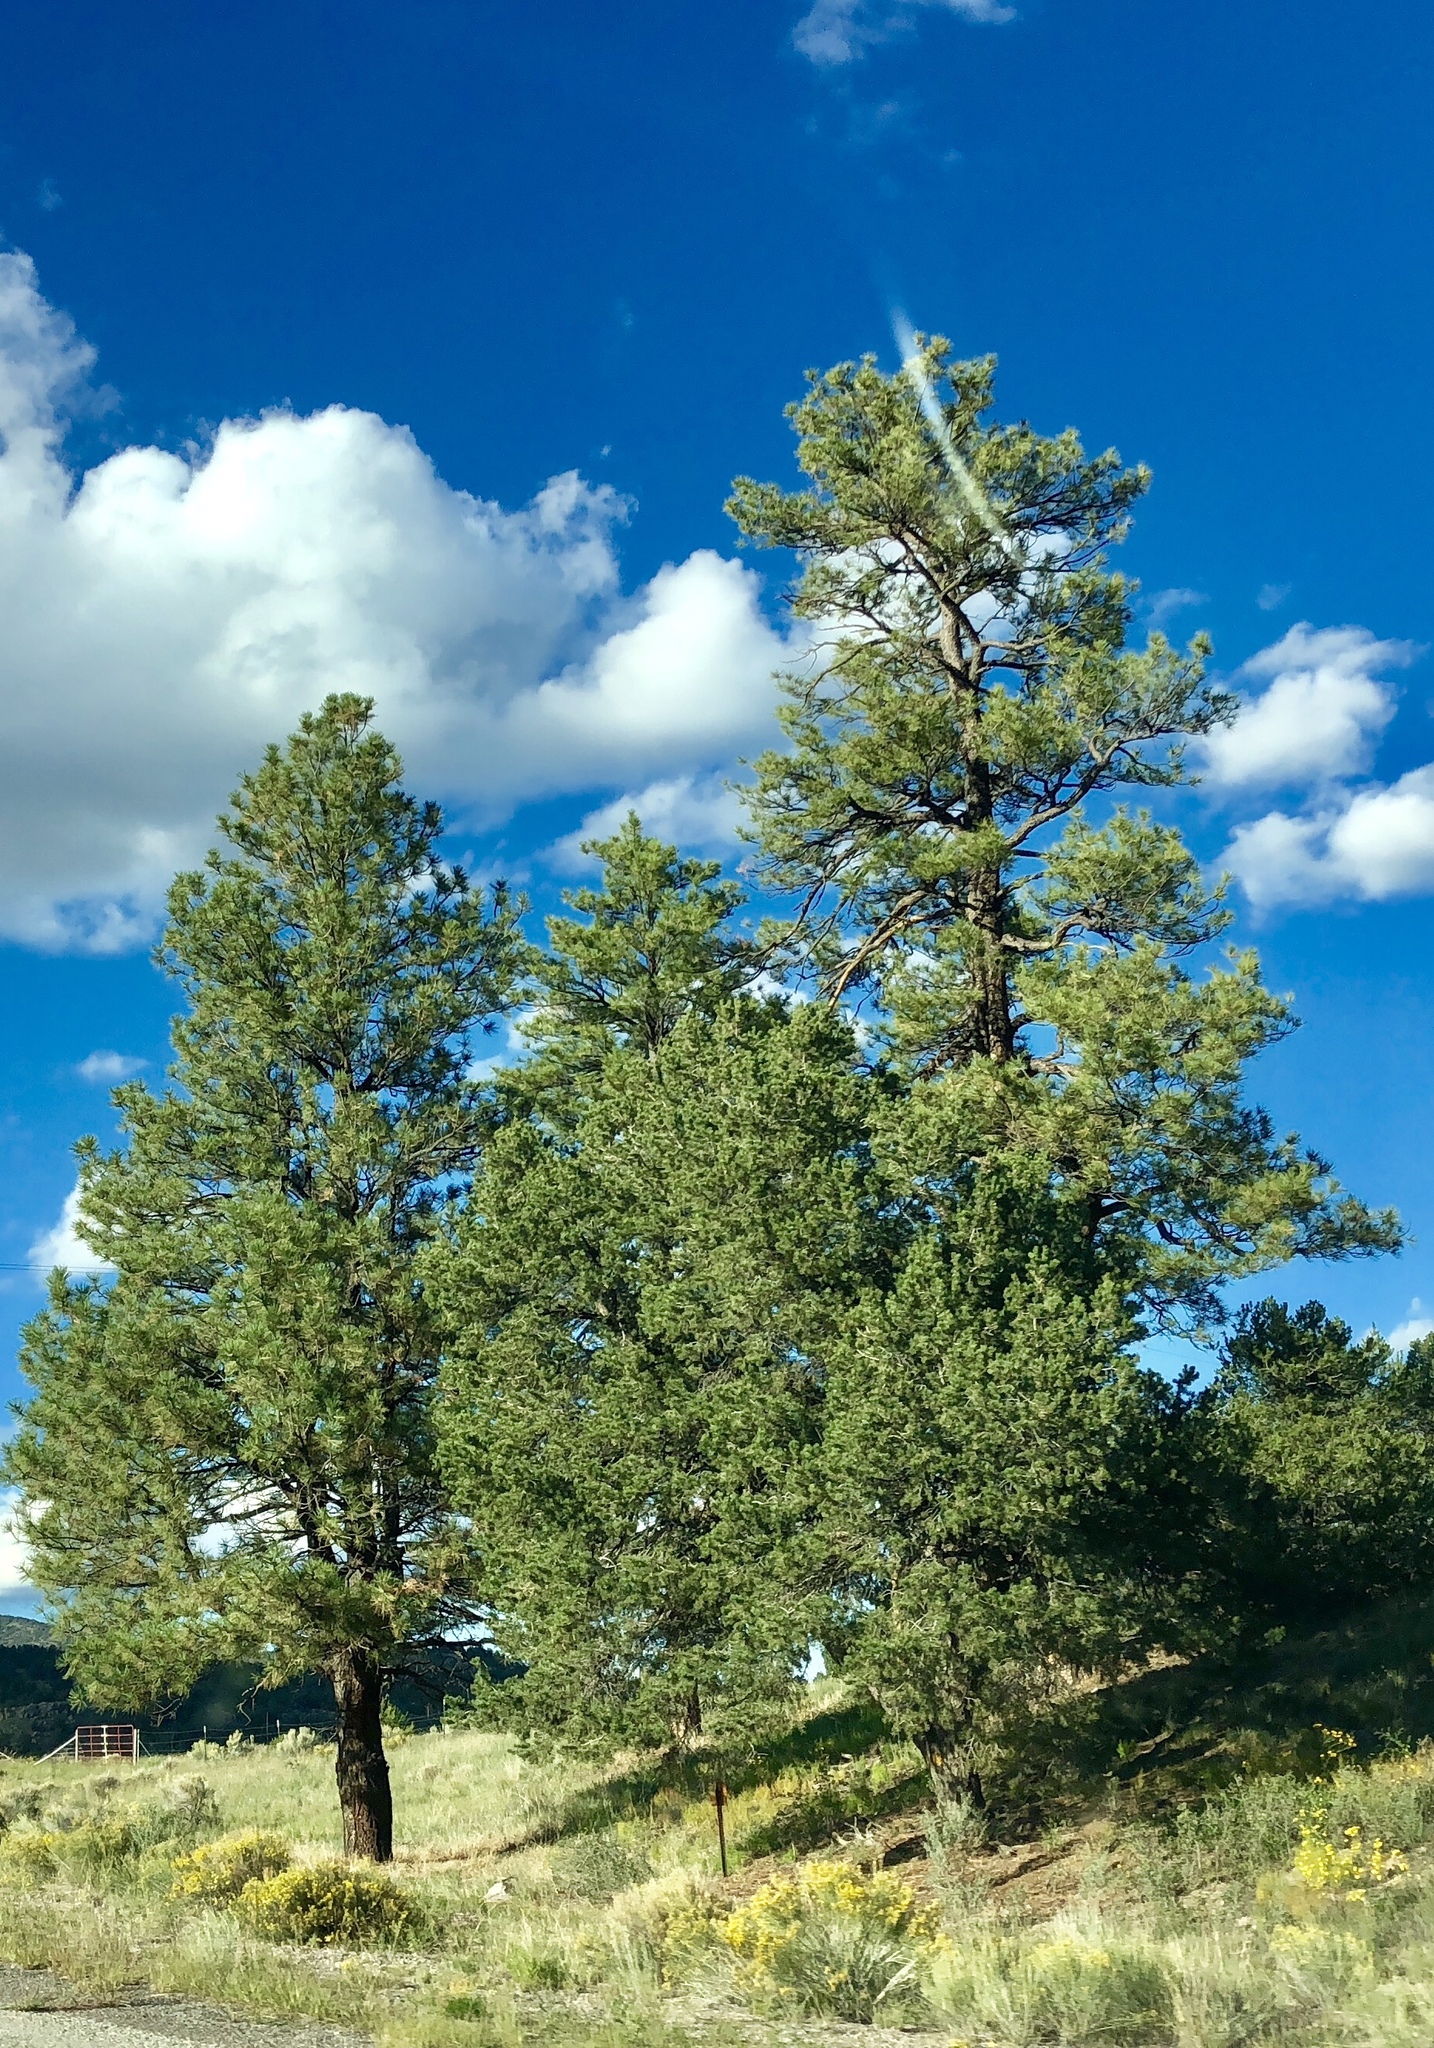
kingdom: Plantae
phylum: Tracheophyta
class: Pinopsida
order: Pinales
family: Pinaceae
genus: Pinus
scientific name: Pinus ponderosa
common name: Western yellow-pine
